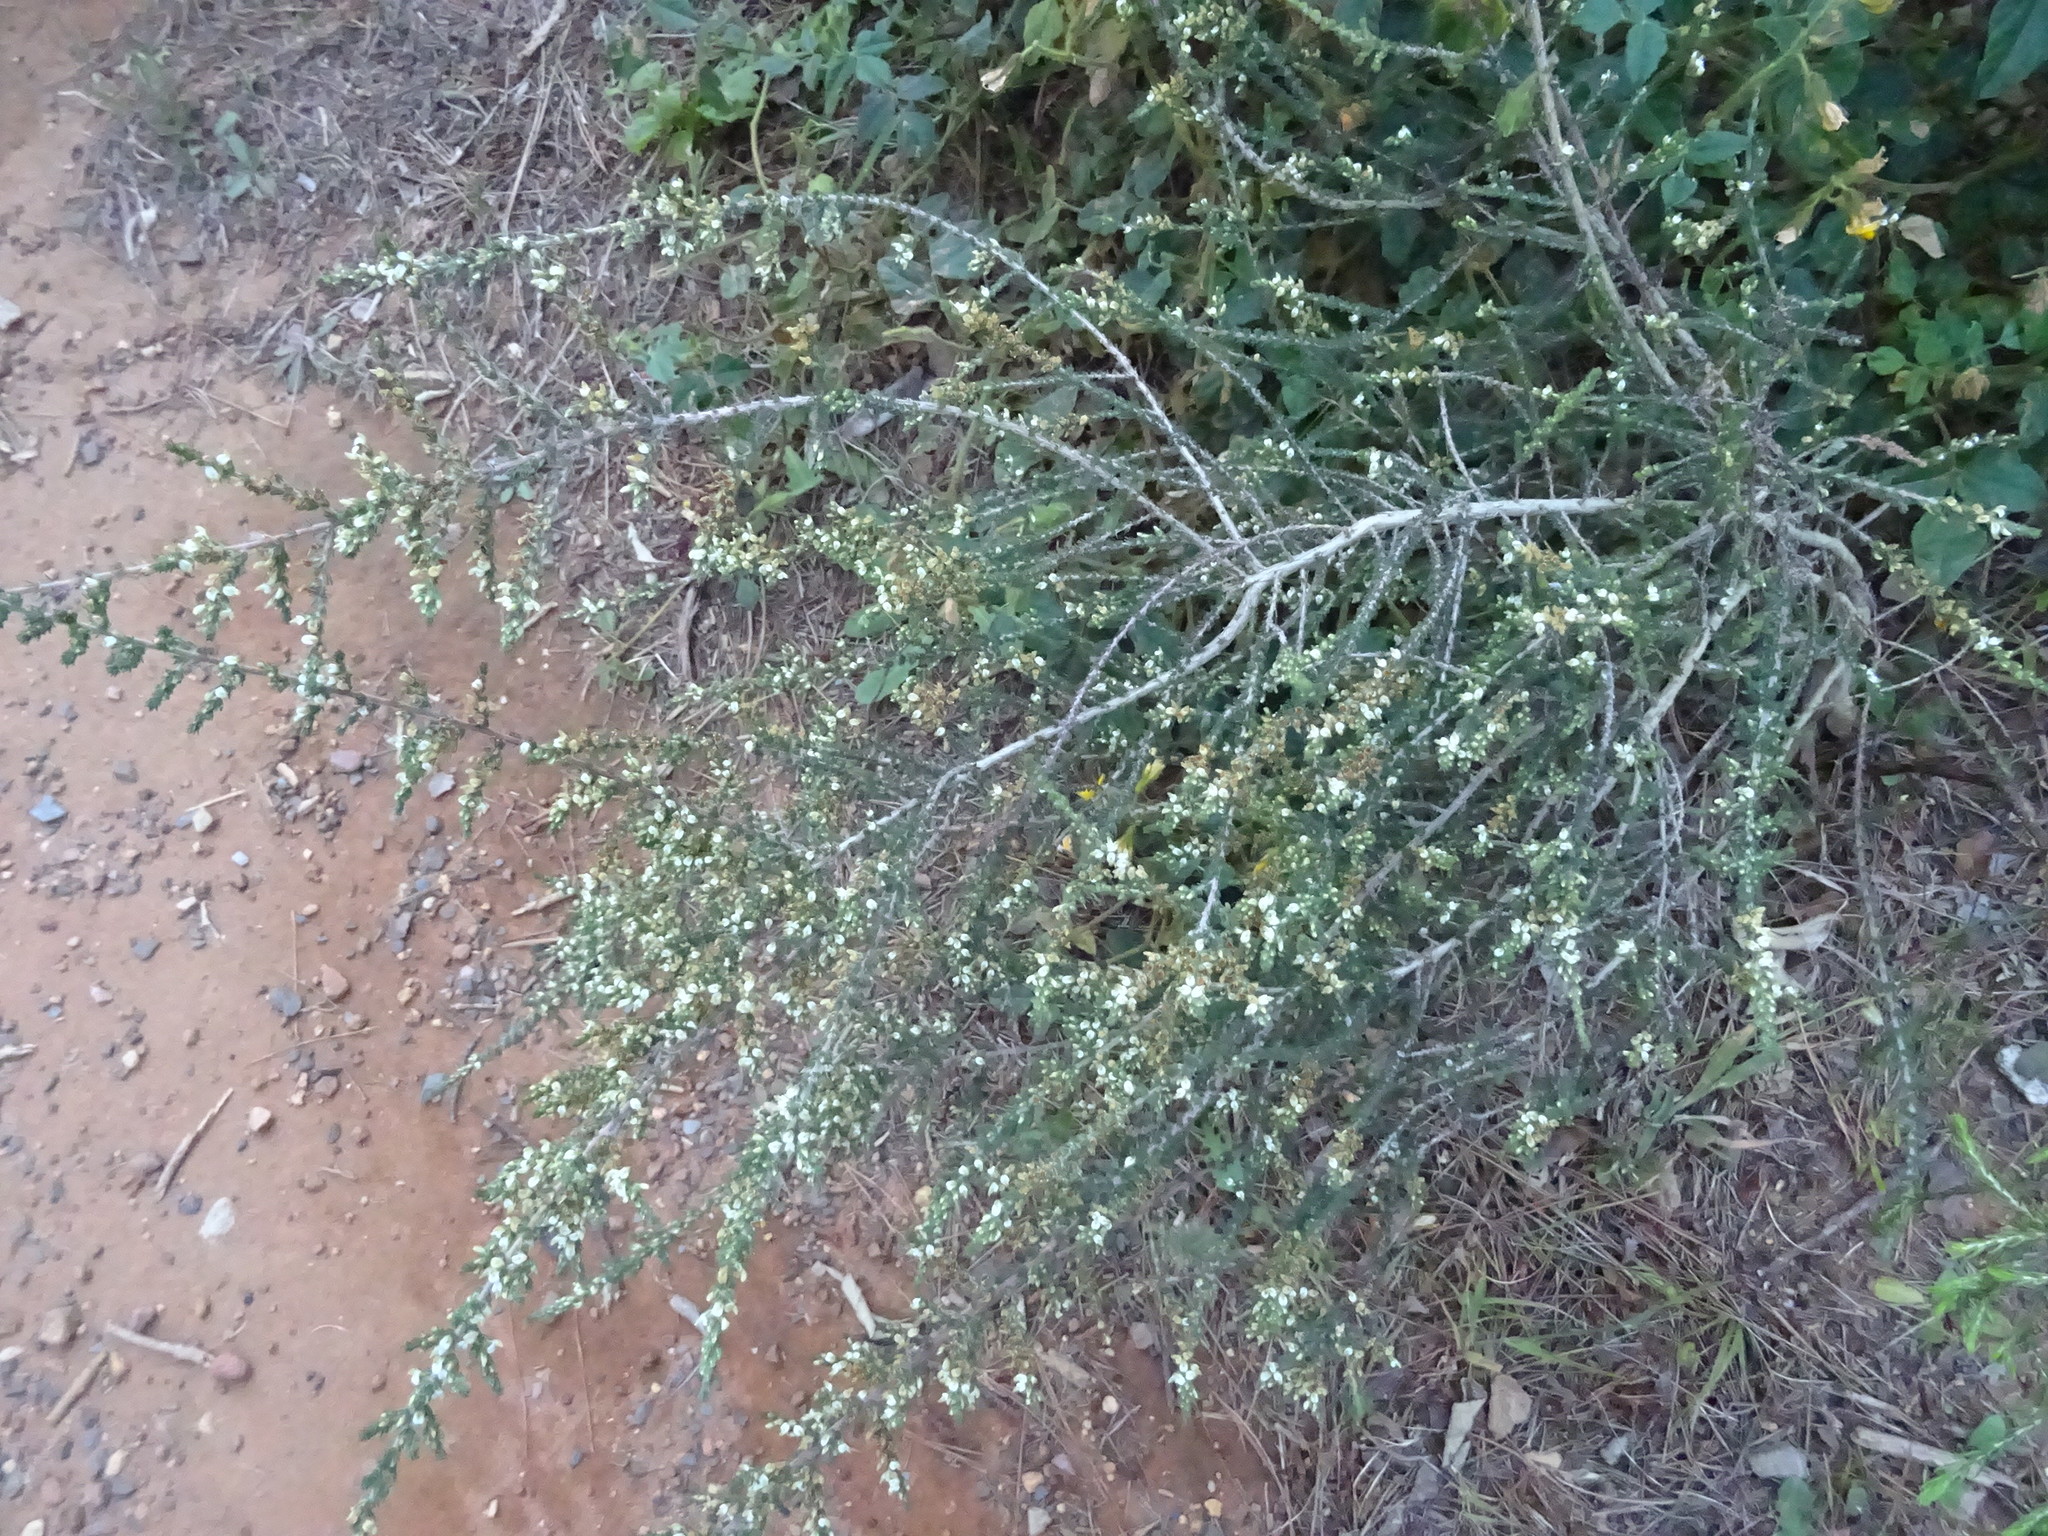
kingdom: Plantae
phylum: Tracheophyta
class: Magnoliopsida
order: Fabales
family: Fabaceae
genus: Aspalathus
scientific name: Aspalathus hispida
